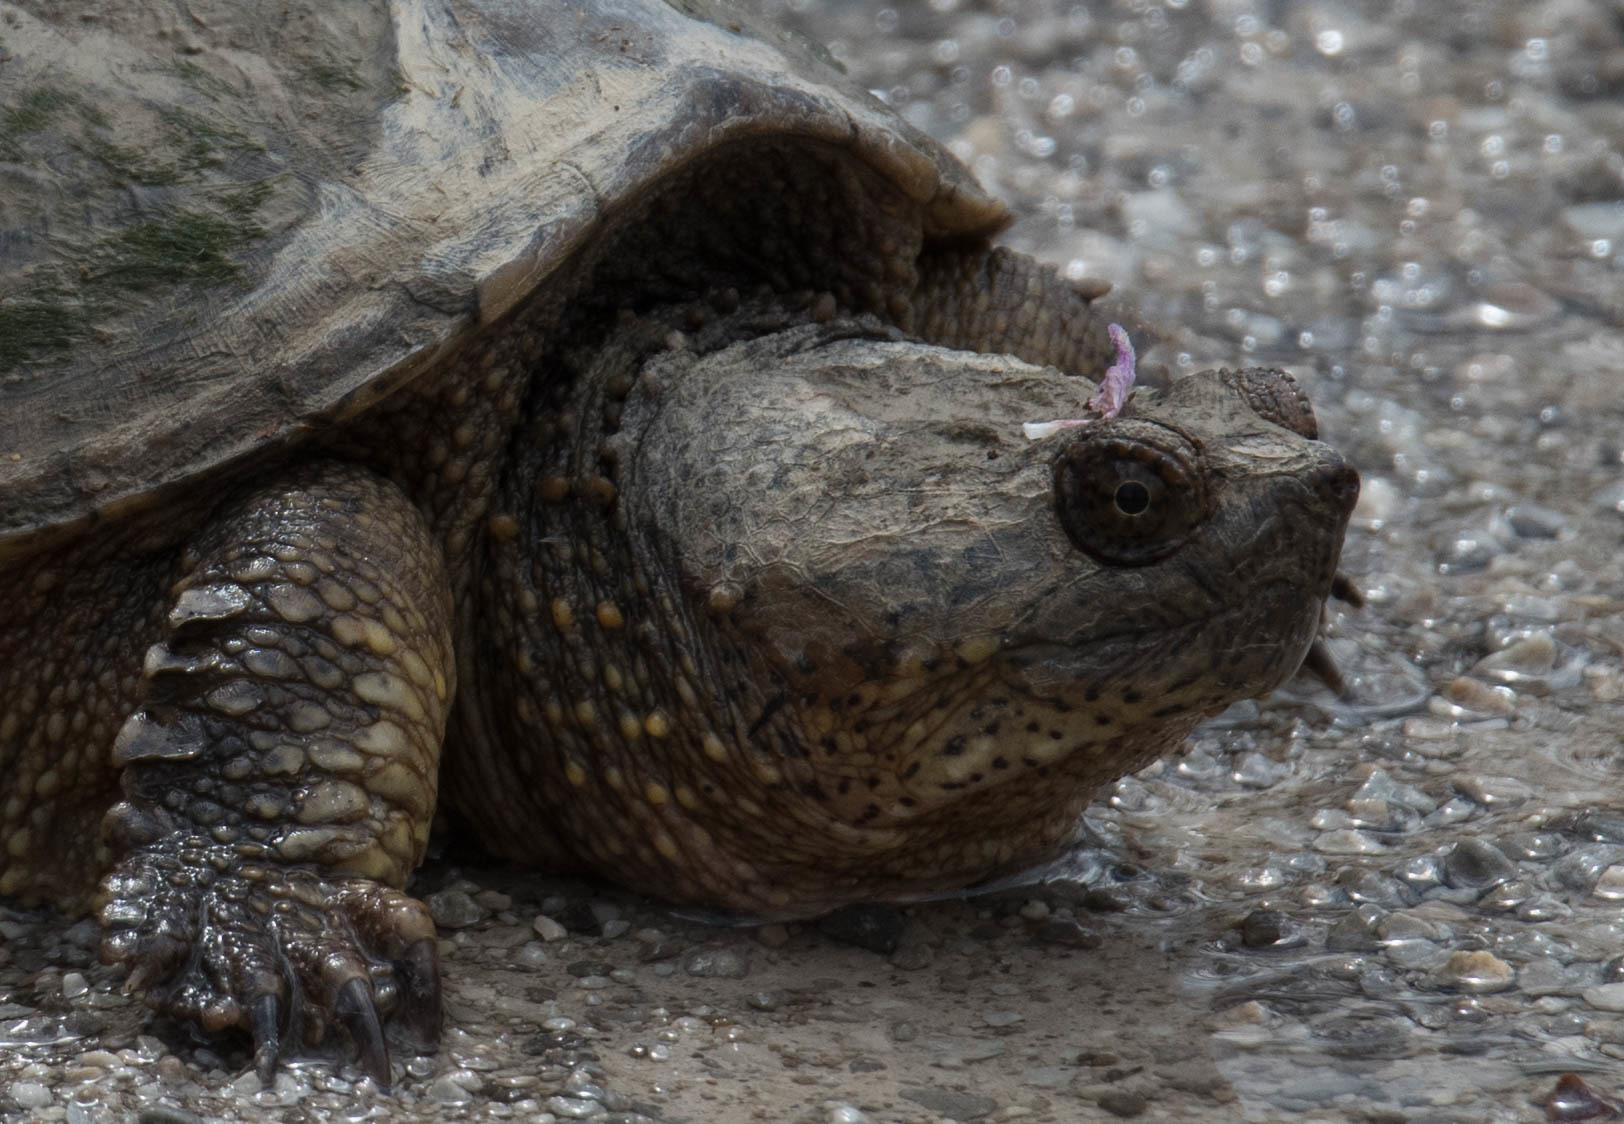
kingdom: Animalia
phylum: Chordata
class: Testudines
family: Chelydridae
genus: Chelydra
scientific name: Chelydra serpentina
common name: Common snapping turtle
